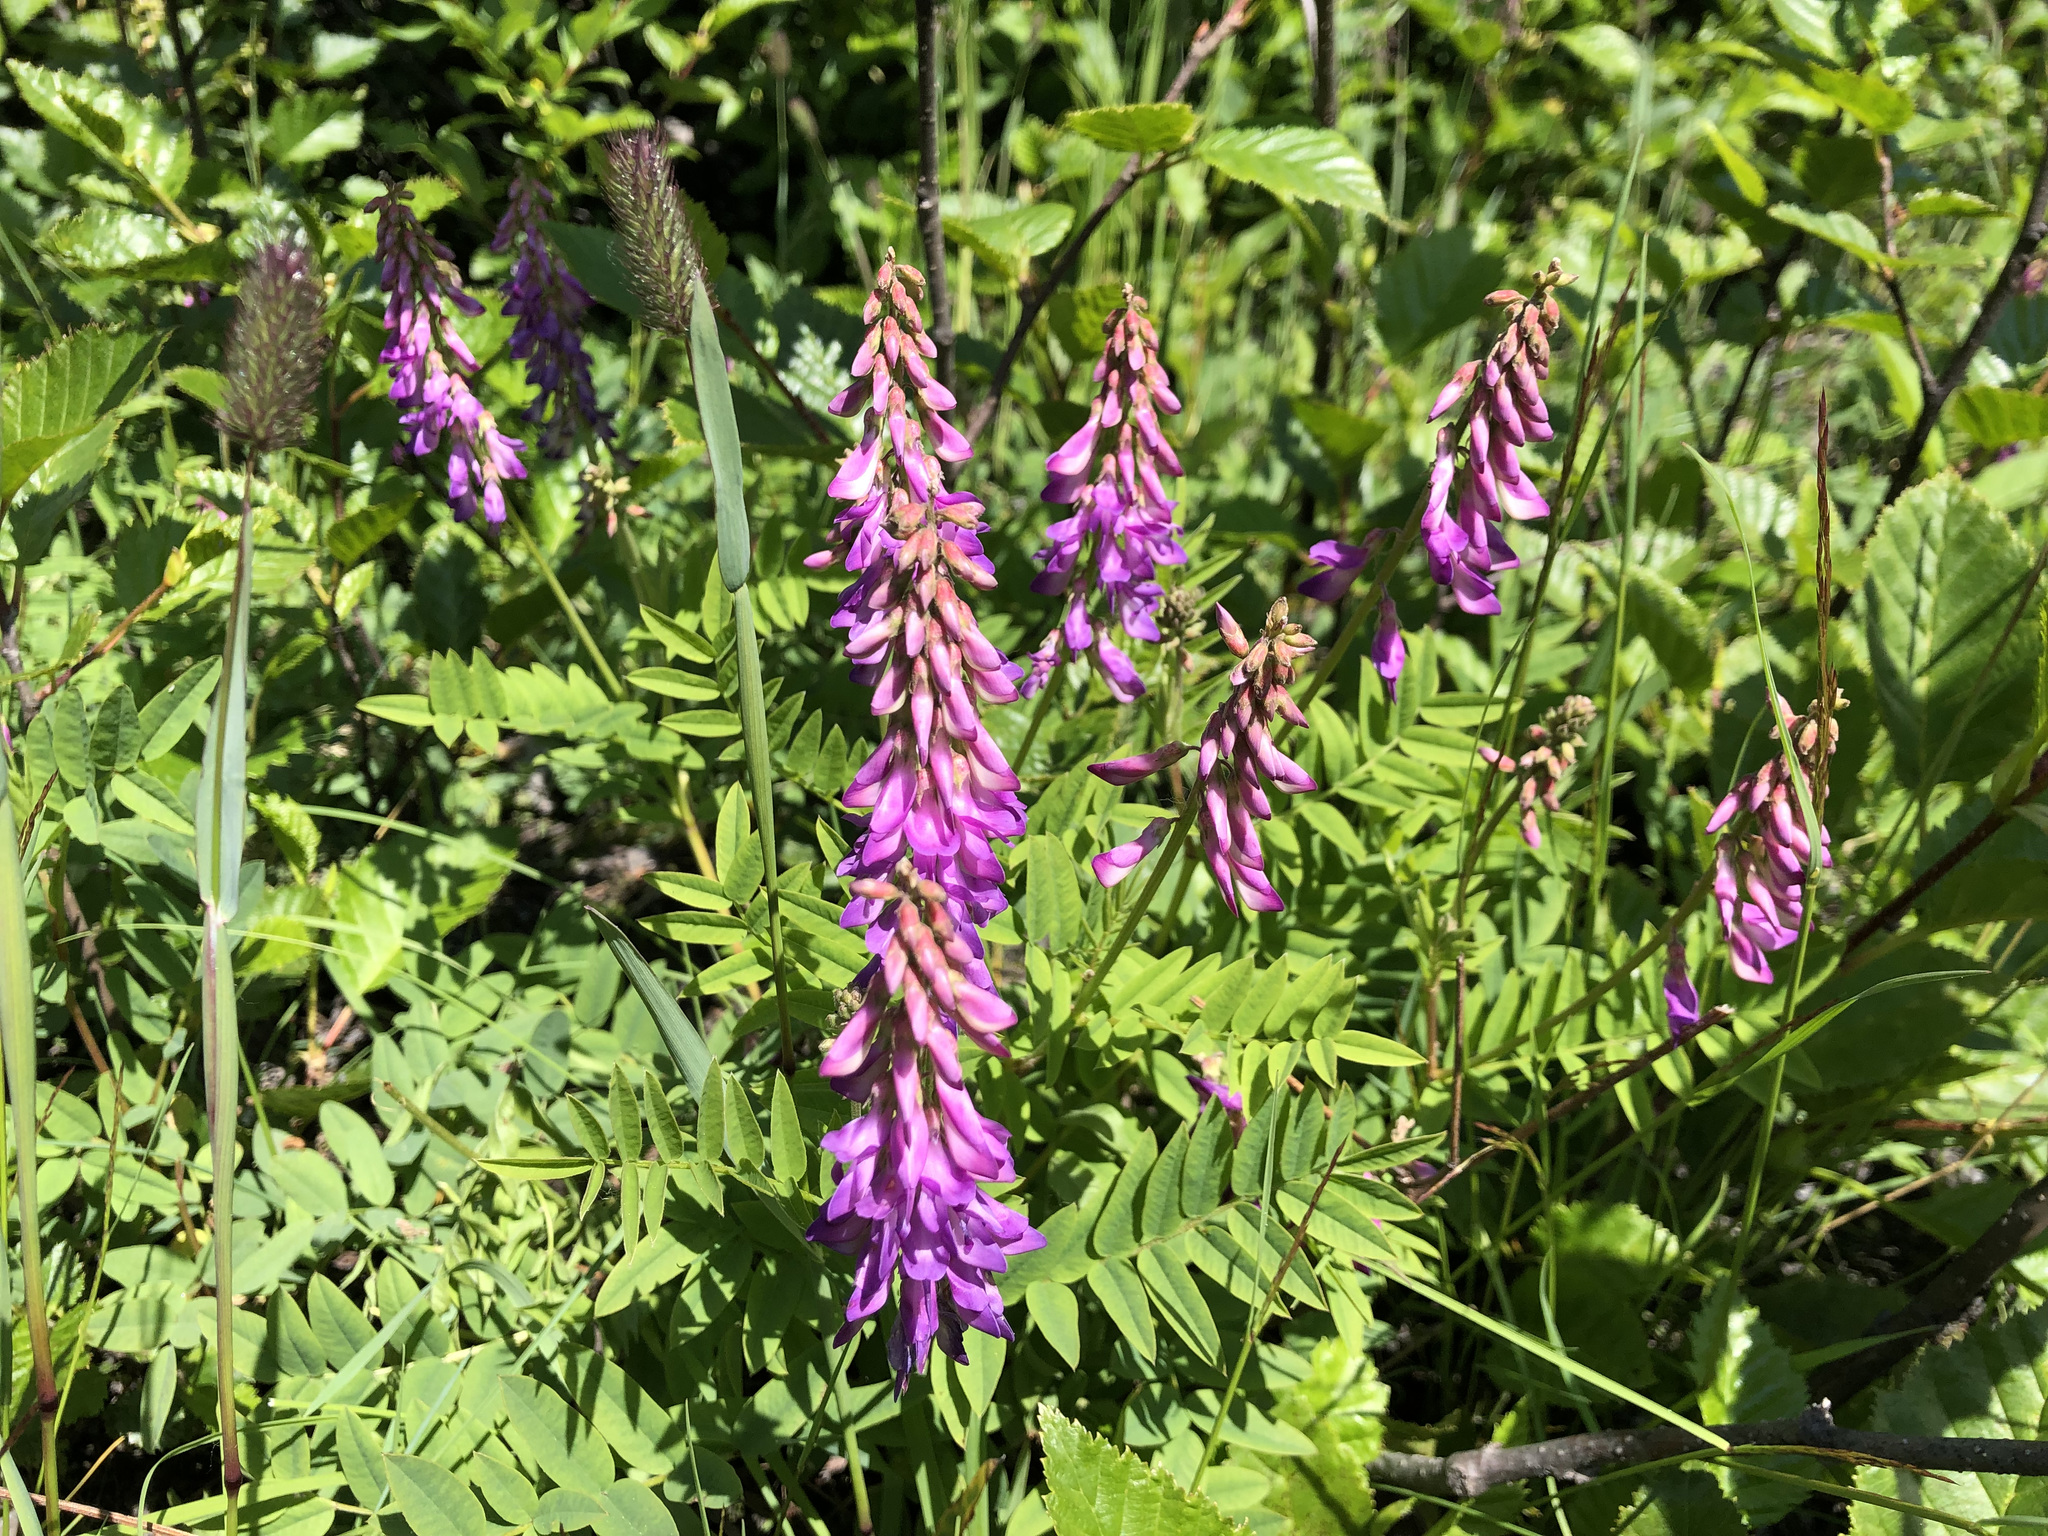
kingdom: Plantae
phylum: Tracheophyta
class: Magnoliopsida
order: Fabales
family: Fabaceae
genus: Hedysarum
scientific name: Hedysarum alpinum
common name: Alpine sweet-vetch
